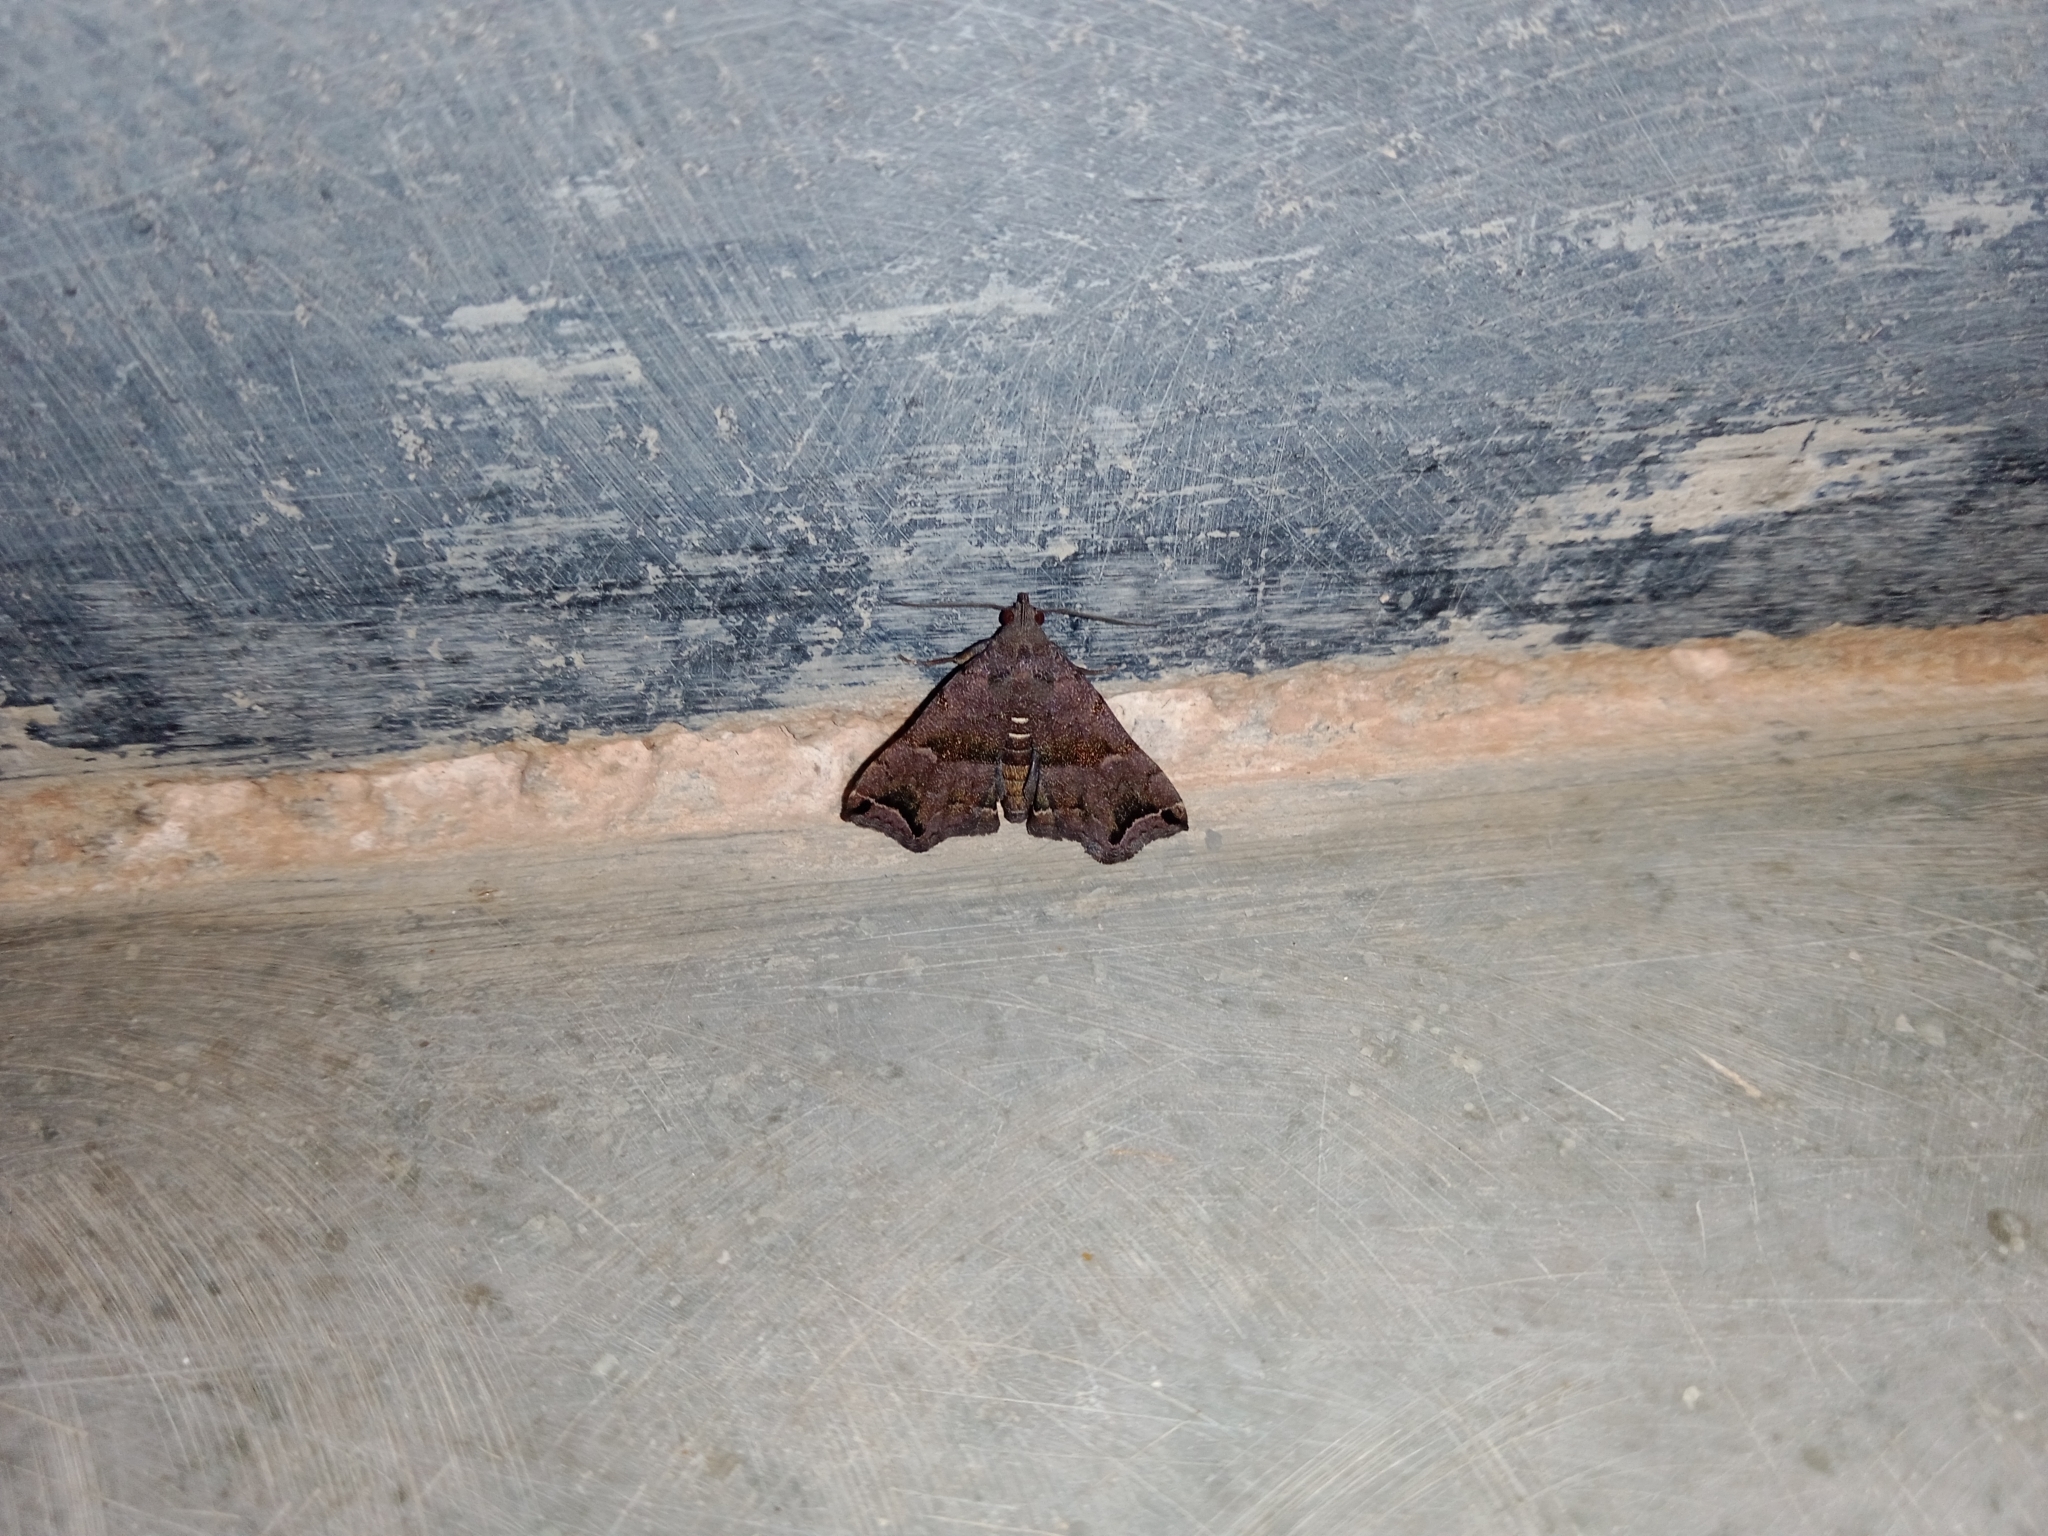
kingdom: Animalia
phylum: Arthropoda
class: Insecta
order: Lepidoptera
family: Erebidae
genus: Polypogon
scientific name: Polypogon biasalis
